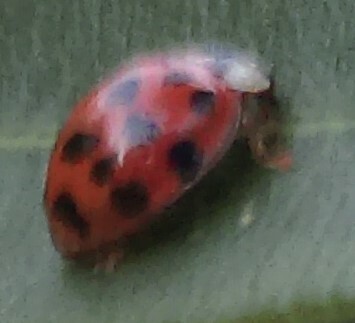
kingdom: Animalia
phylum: Arthropoda
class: Insecta
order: Coleoptera
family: Coccinellidae
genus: Harmonia
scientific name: Harmonia axyridis
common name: Harlequin ladybird
